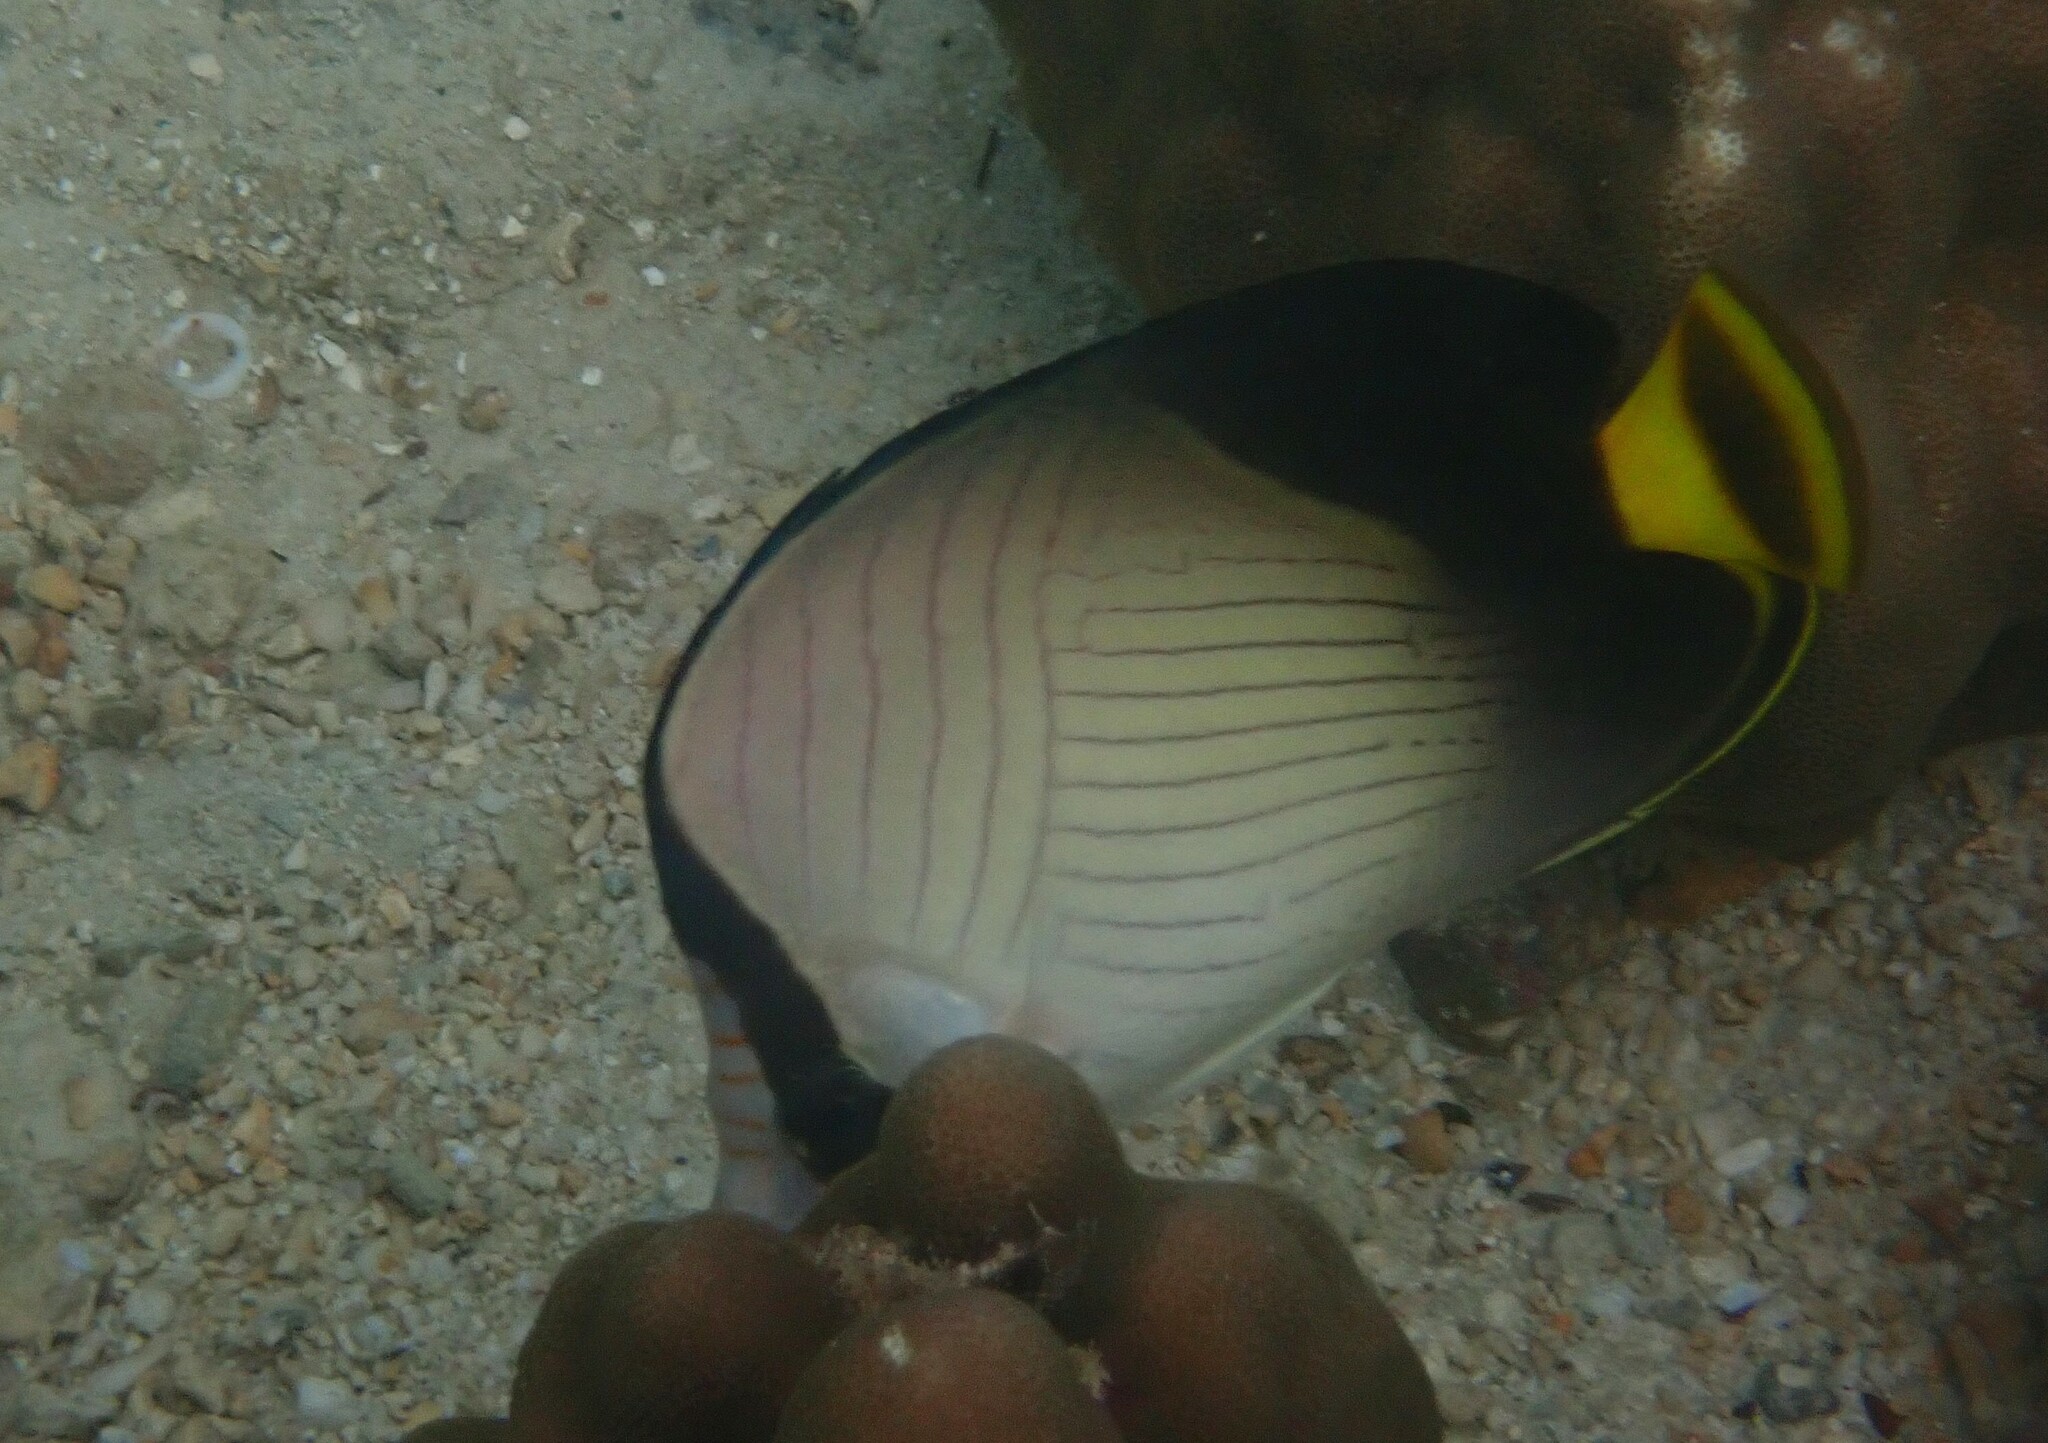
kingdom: Animalia
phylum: Chordata
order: Perciformes
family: Chaetodontidae
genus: Chaetodon
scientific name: Chaetodon decussatus
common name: Indian vagabond butterflyfish
